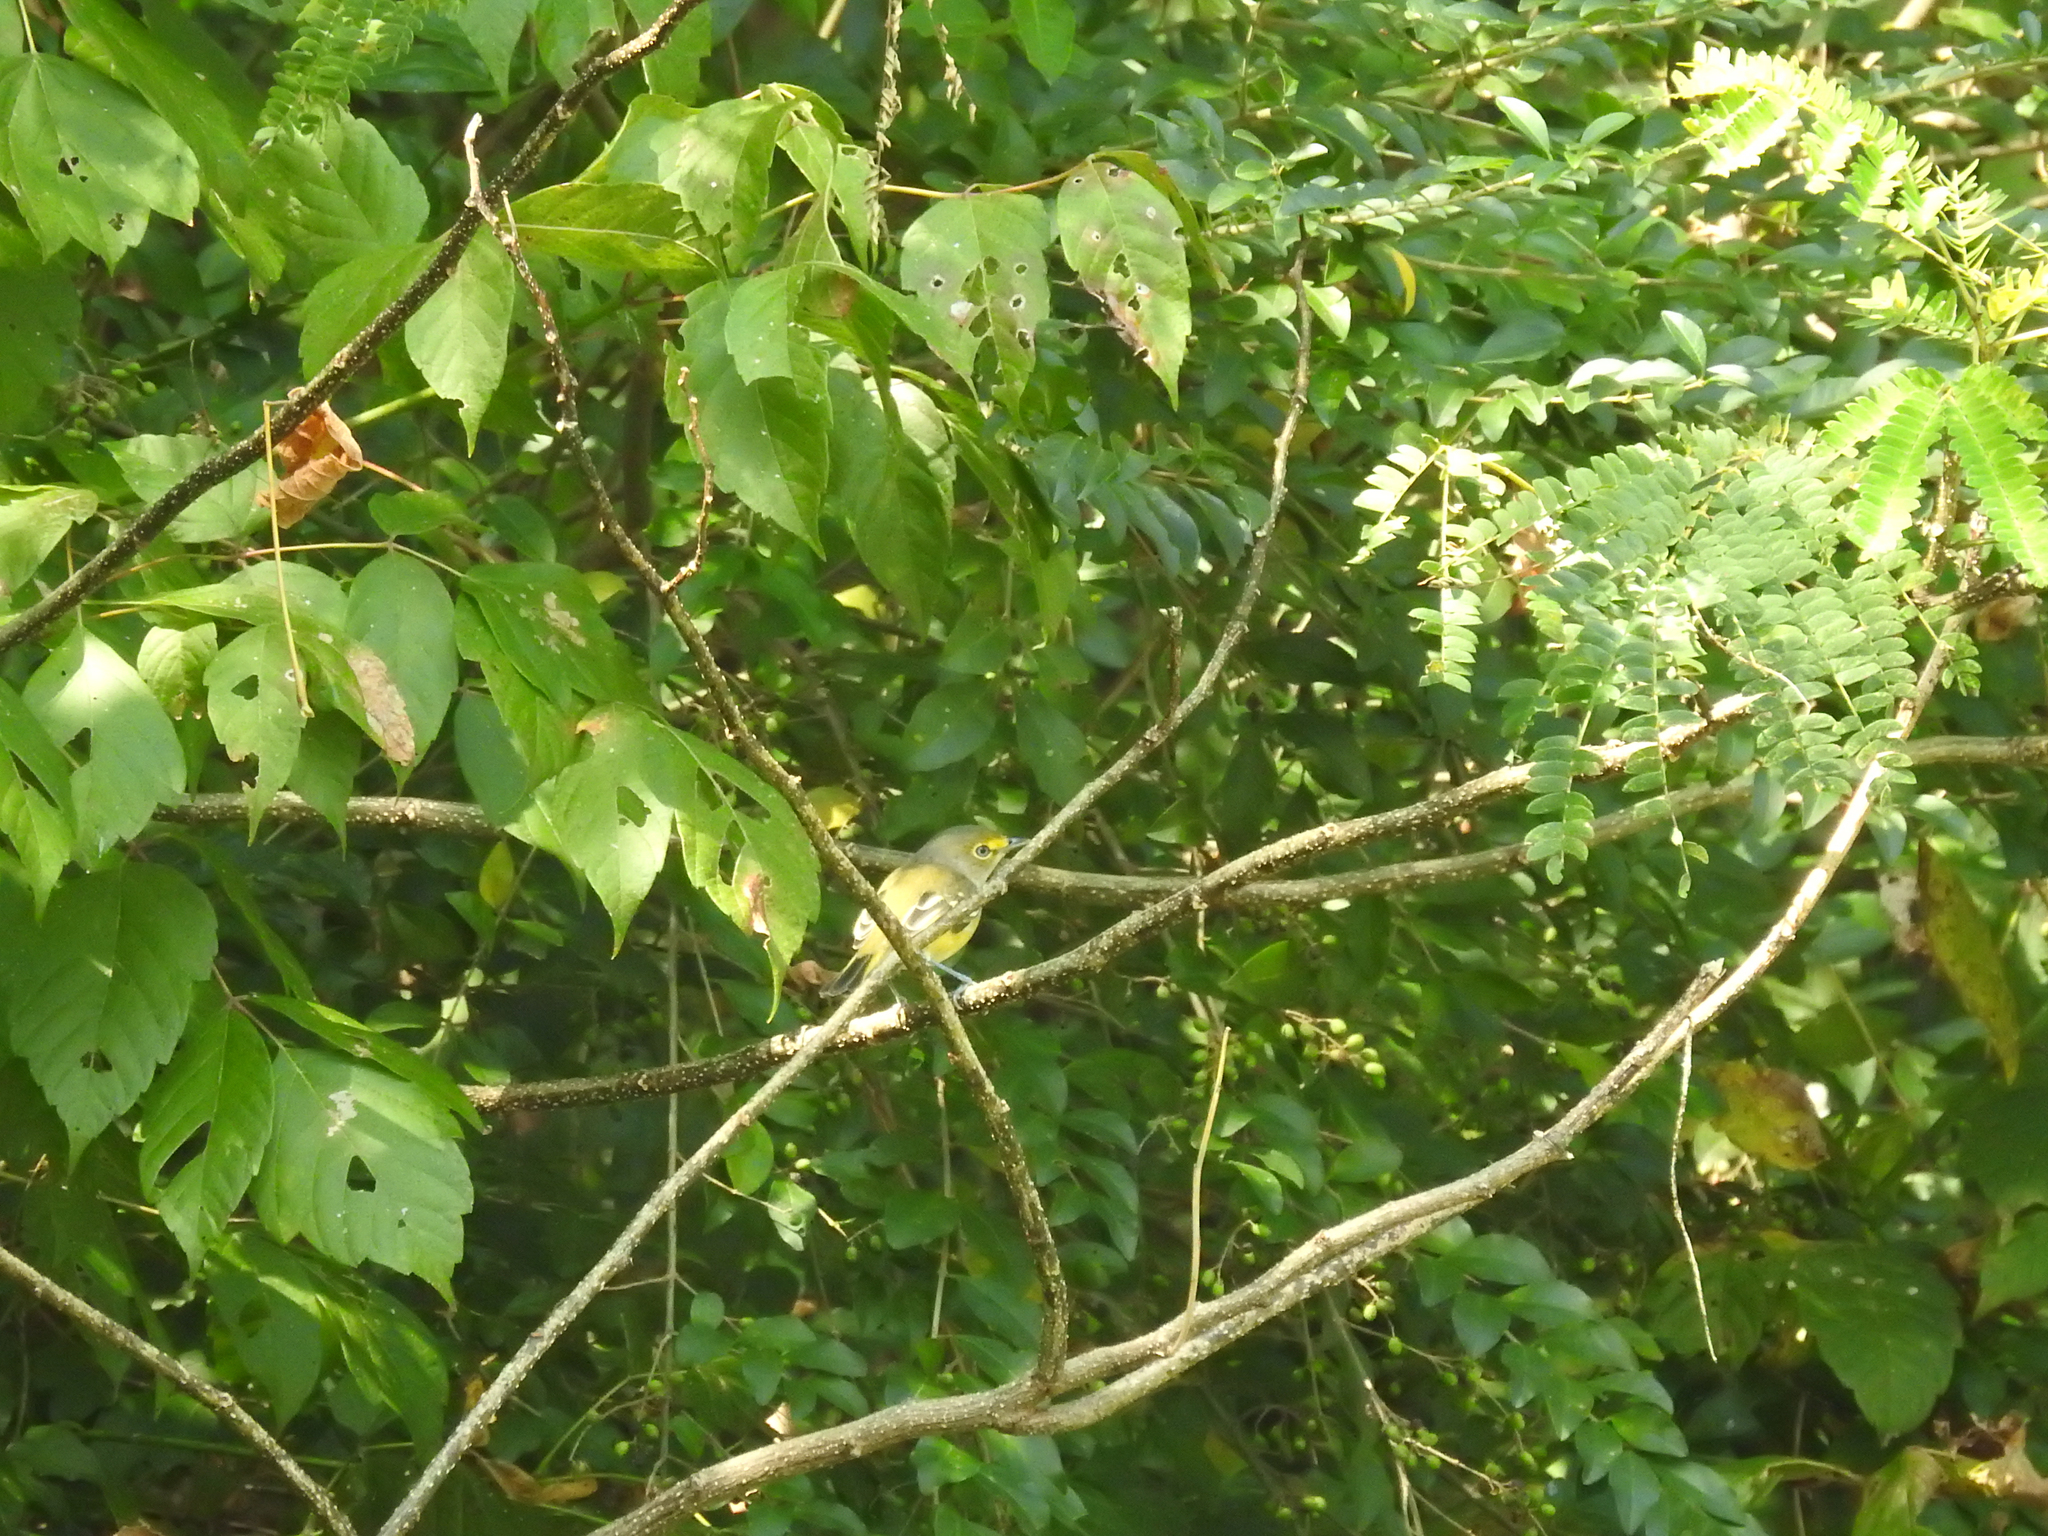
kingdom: Animalia
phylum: Chordata
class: Aves
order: Passeriformes
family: Vireonidae
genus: Vireo
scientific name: Vireo griseus
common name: White-eyed vireo
